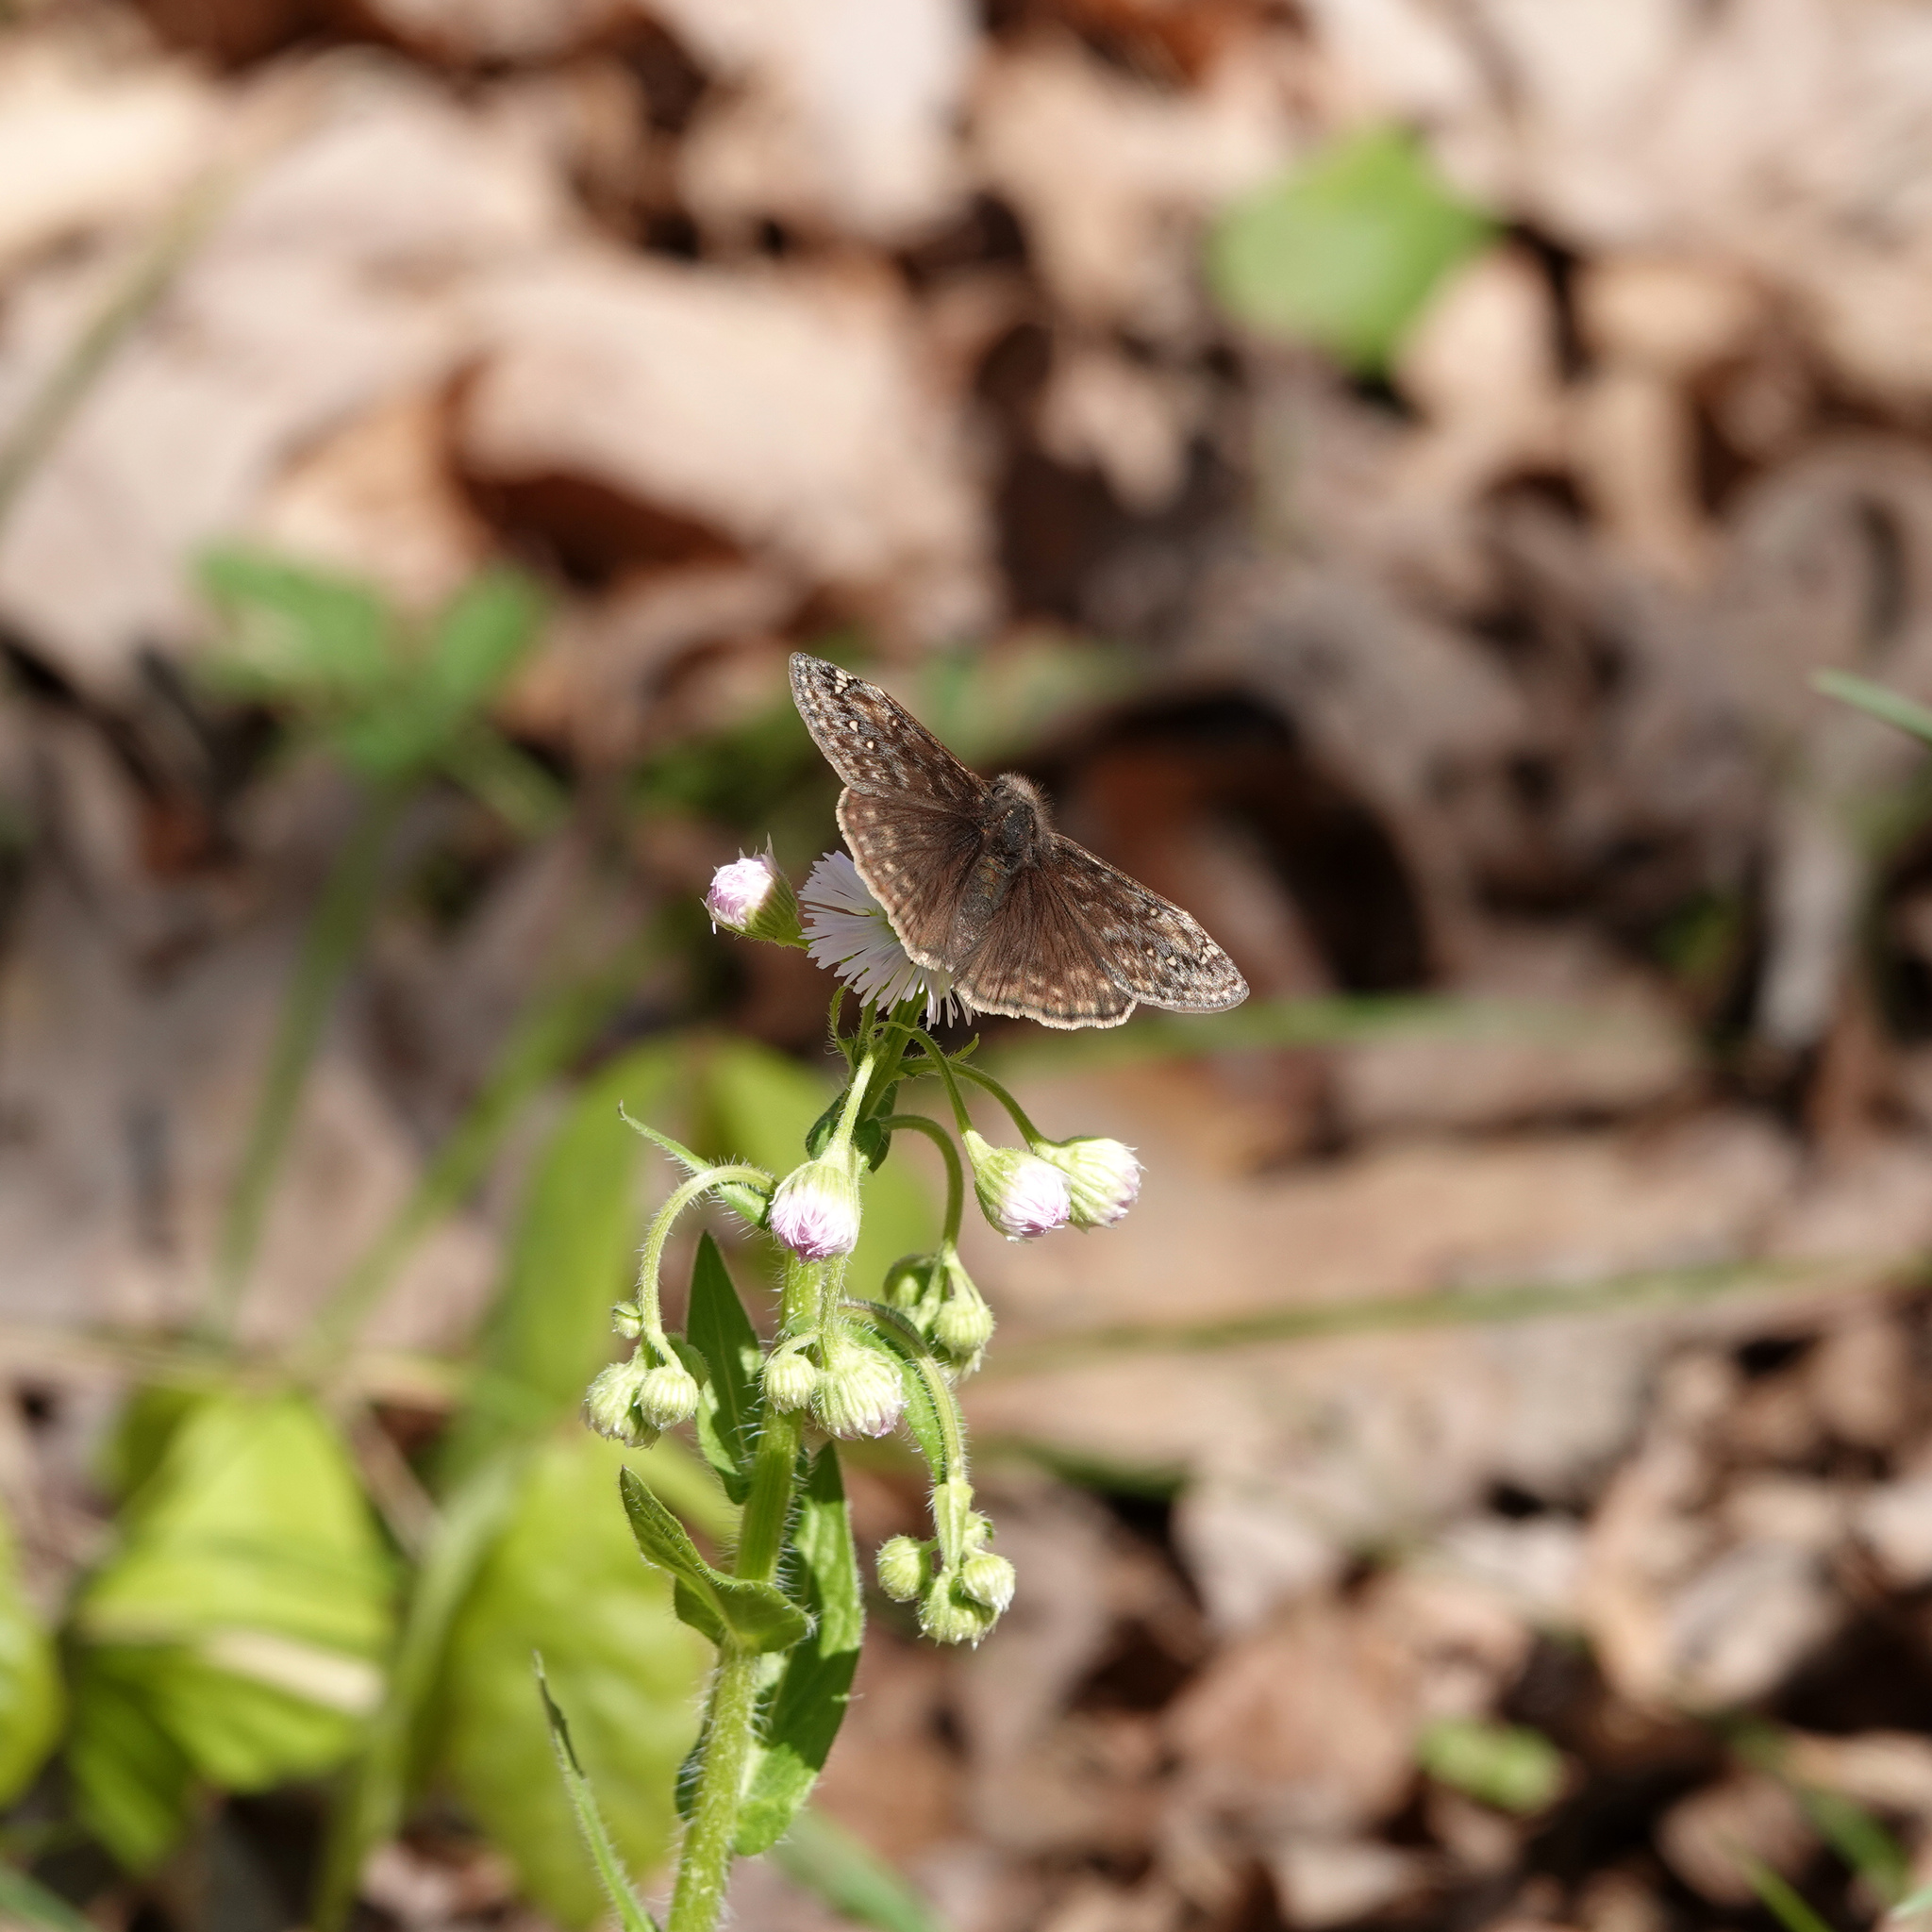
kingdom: Animalia
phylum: Arthropoda
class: Insecta
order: Lepidoptera
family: Hesperiidae
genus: Erynnis
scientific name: Erynnis juvenalis
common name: Juvenal's duskywing
